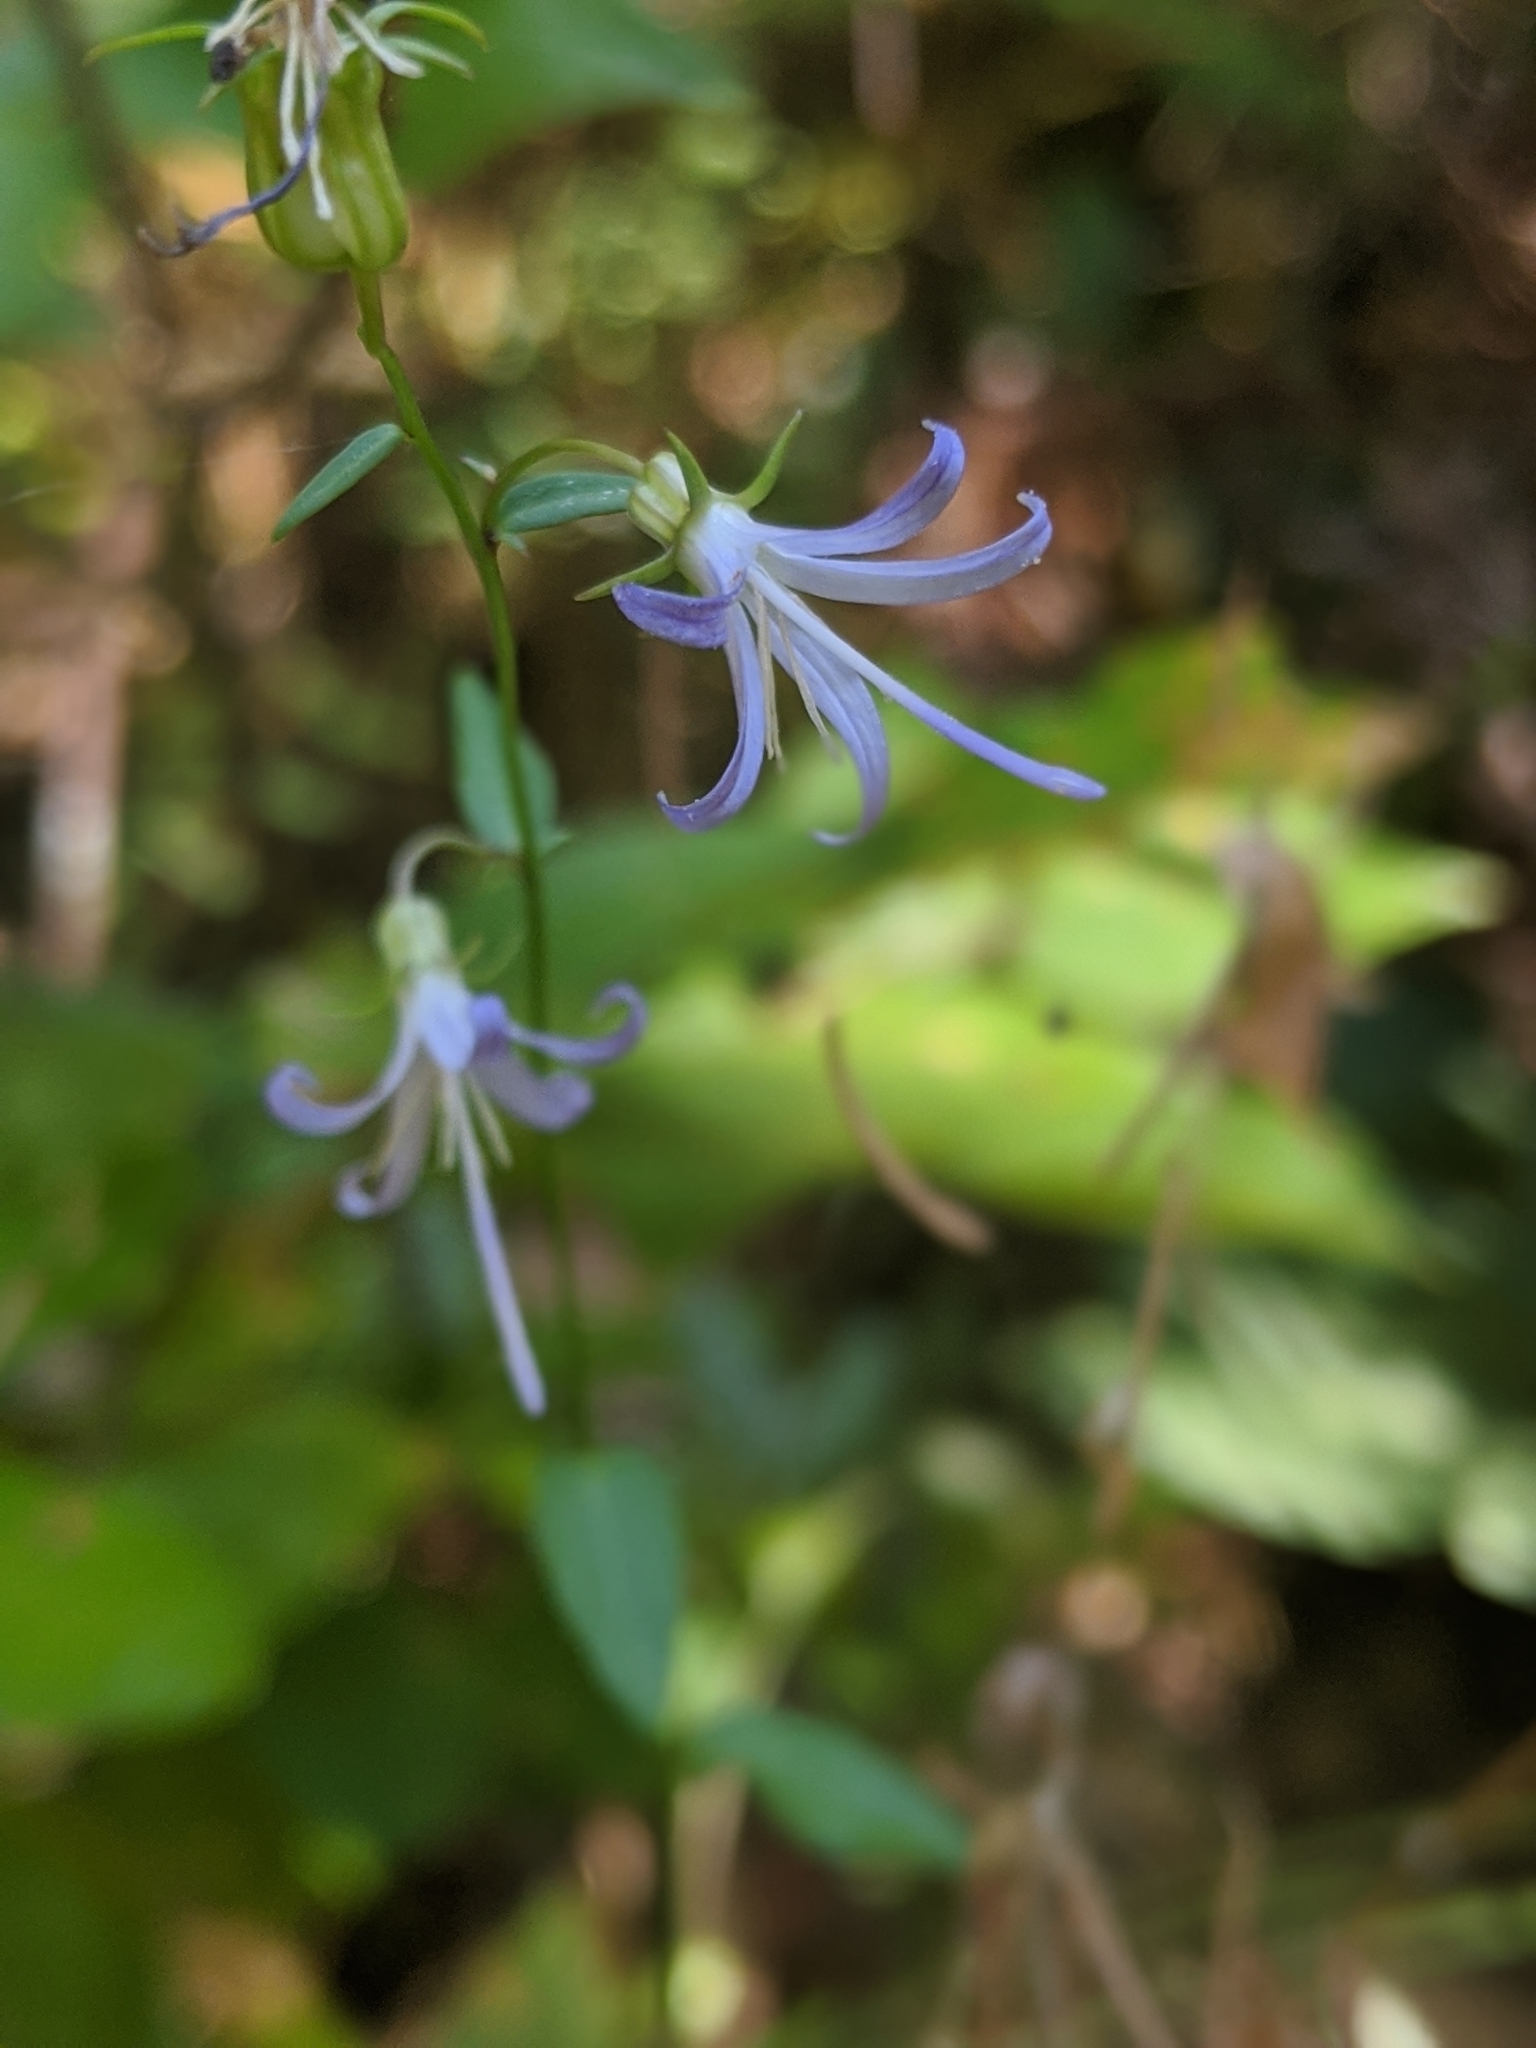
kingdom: Plantae
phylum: Tracheophyta
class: Magnoliopsida
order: Asterales
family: Campanulaceae
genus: Smithiastrum
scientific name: Smithiastrum prenanthoides
